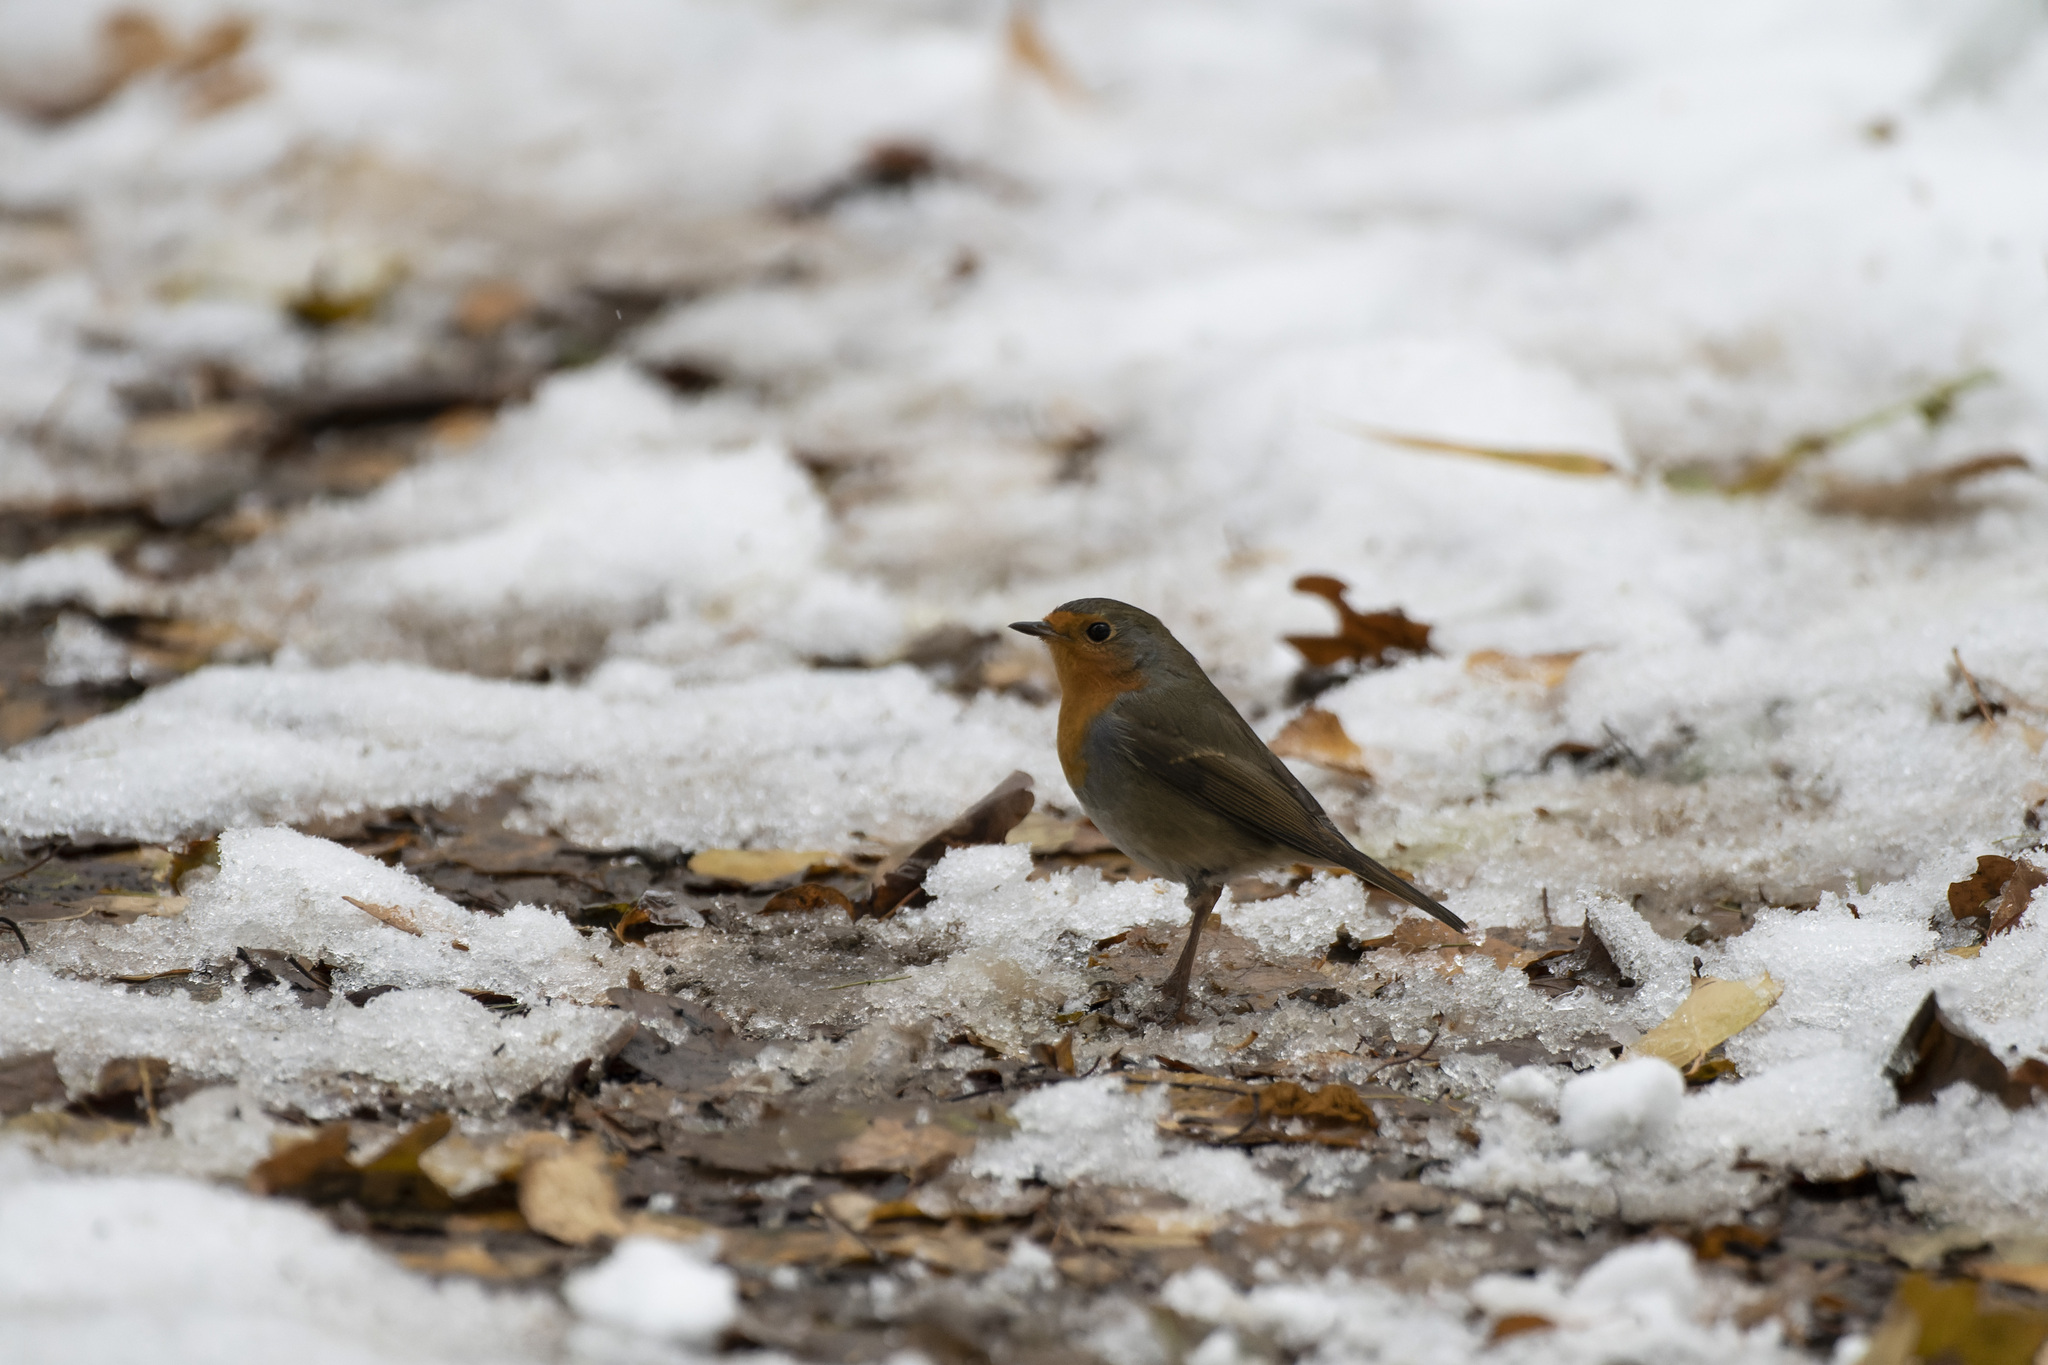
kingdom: Animalia
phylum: Chordata
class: Aves
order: Passeriformes
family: Muscicapidae
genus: Erithacus
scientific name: Erithacus rubecula
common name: European robin
